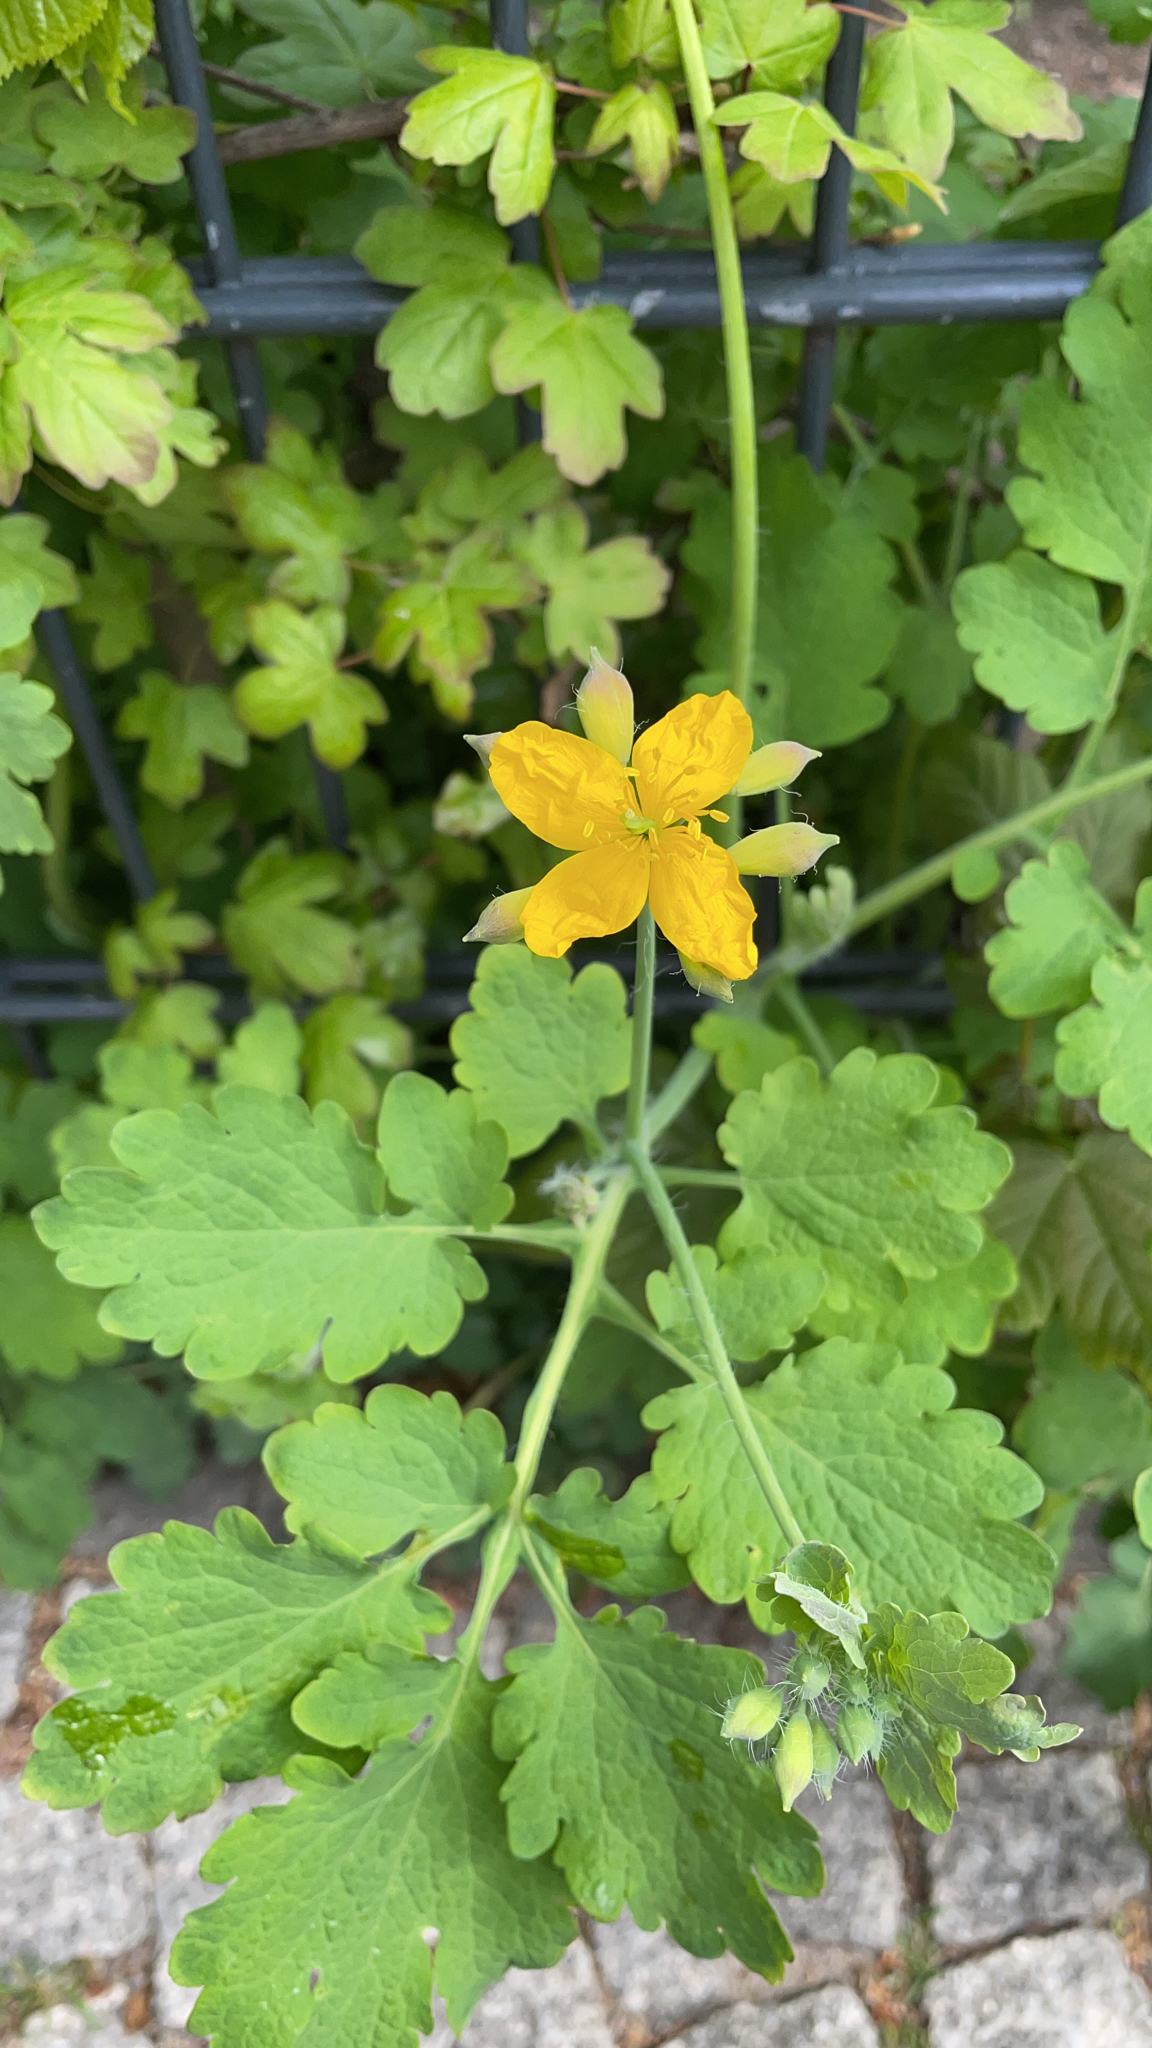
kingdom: Plantae
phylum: Tracheophyta
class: Magnoliopsida
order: Ranunculales
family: Papaveraceae
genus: Chelidonium
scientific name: Chelidonium majus
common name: Greater celandine
